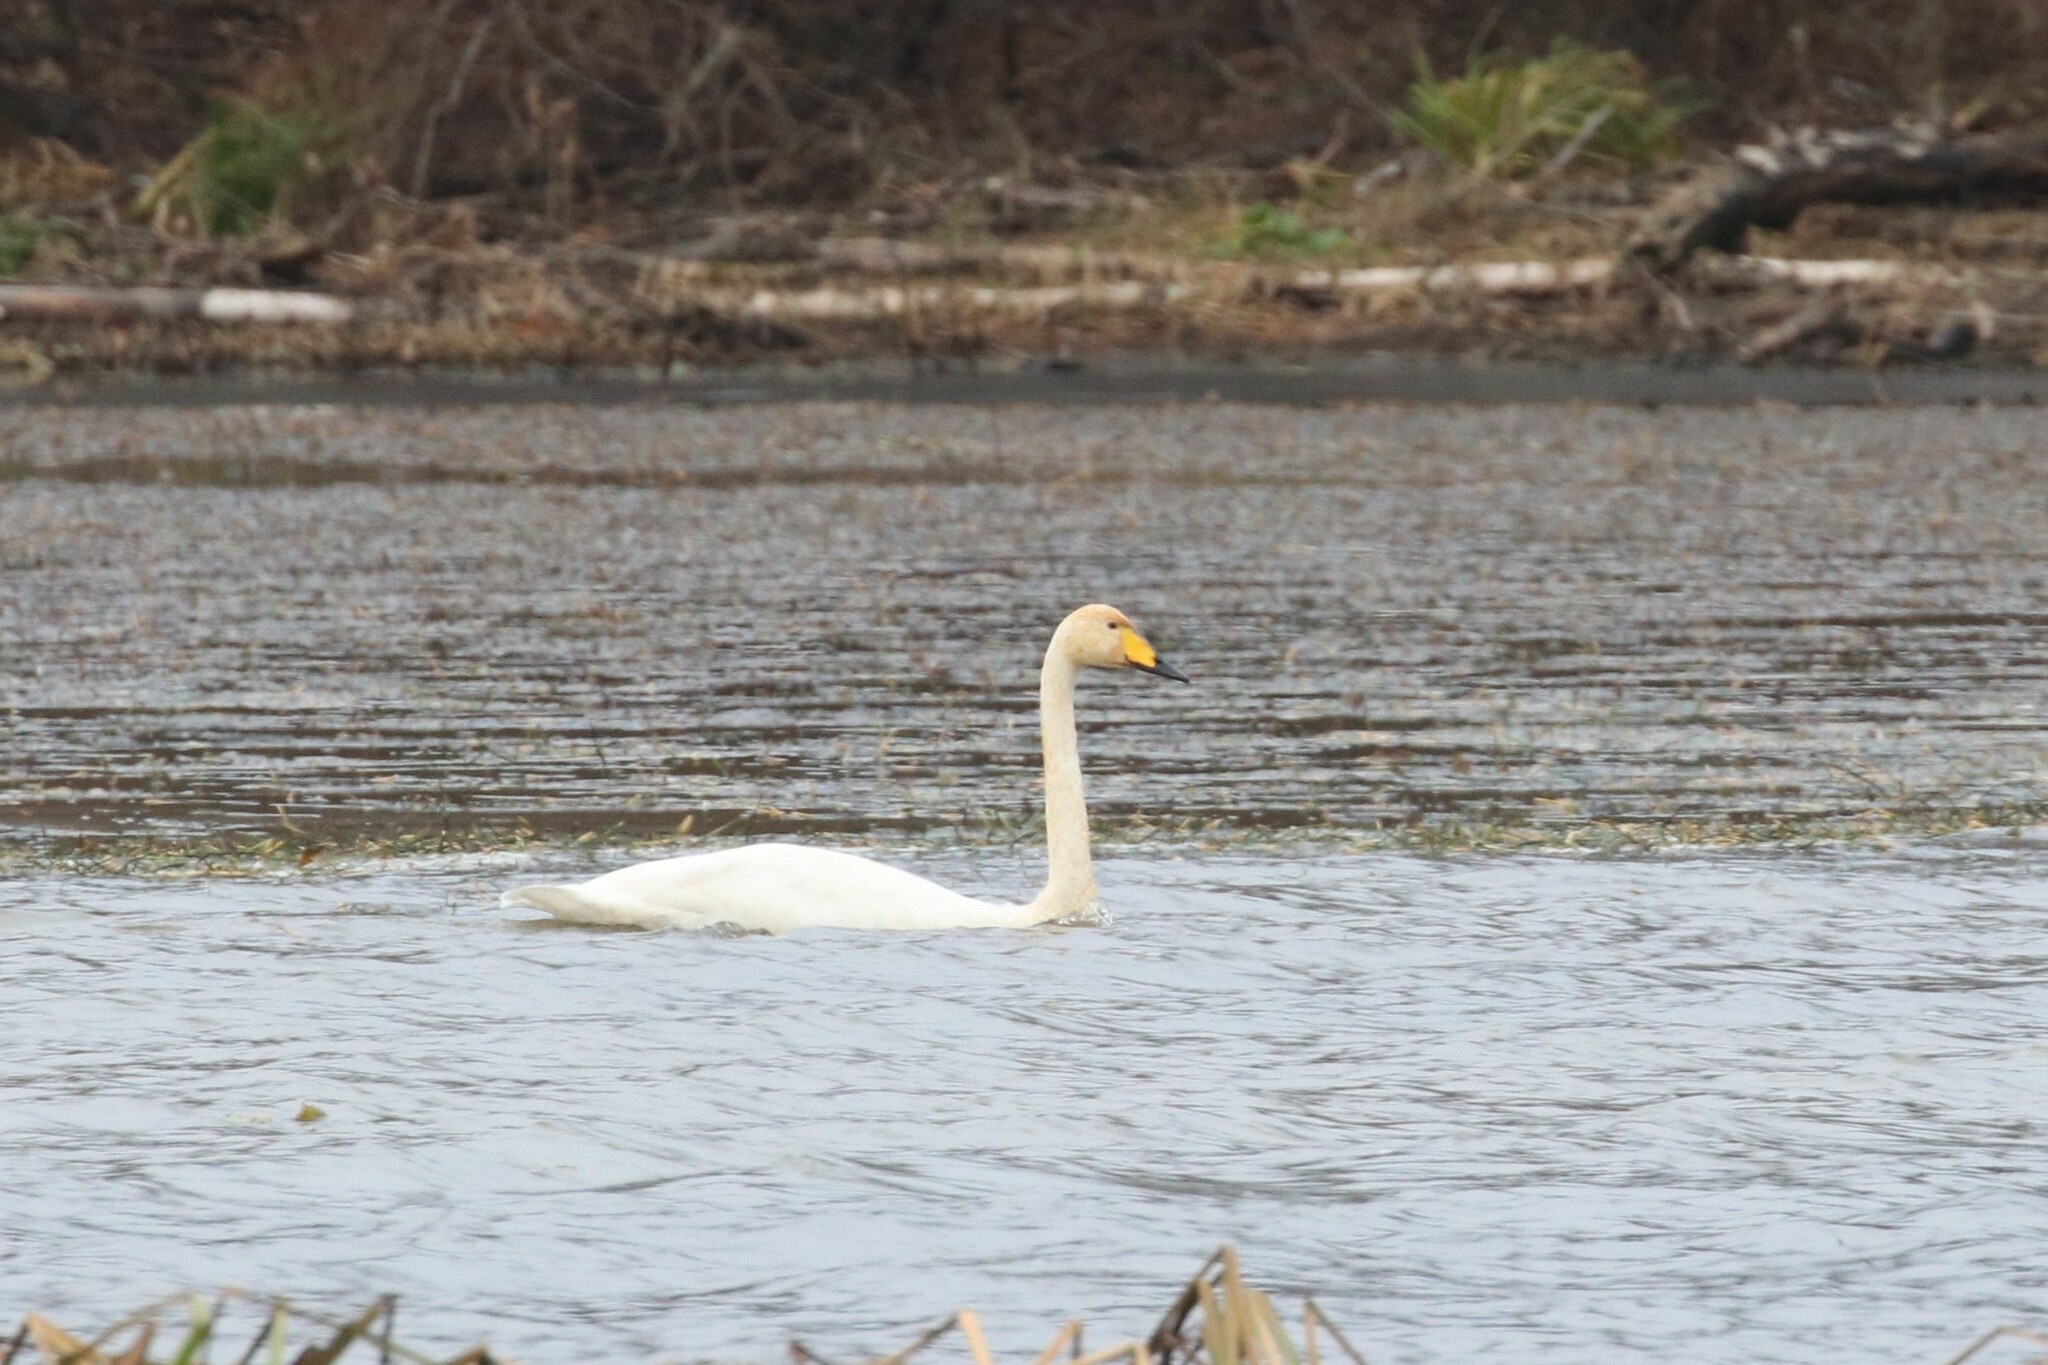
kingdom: Animalia
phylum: Chordata
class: Aves
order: Anseriformes
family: Anatidae
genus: Cygnus
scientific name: Cygnus cygnus
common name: Whooper swan
